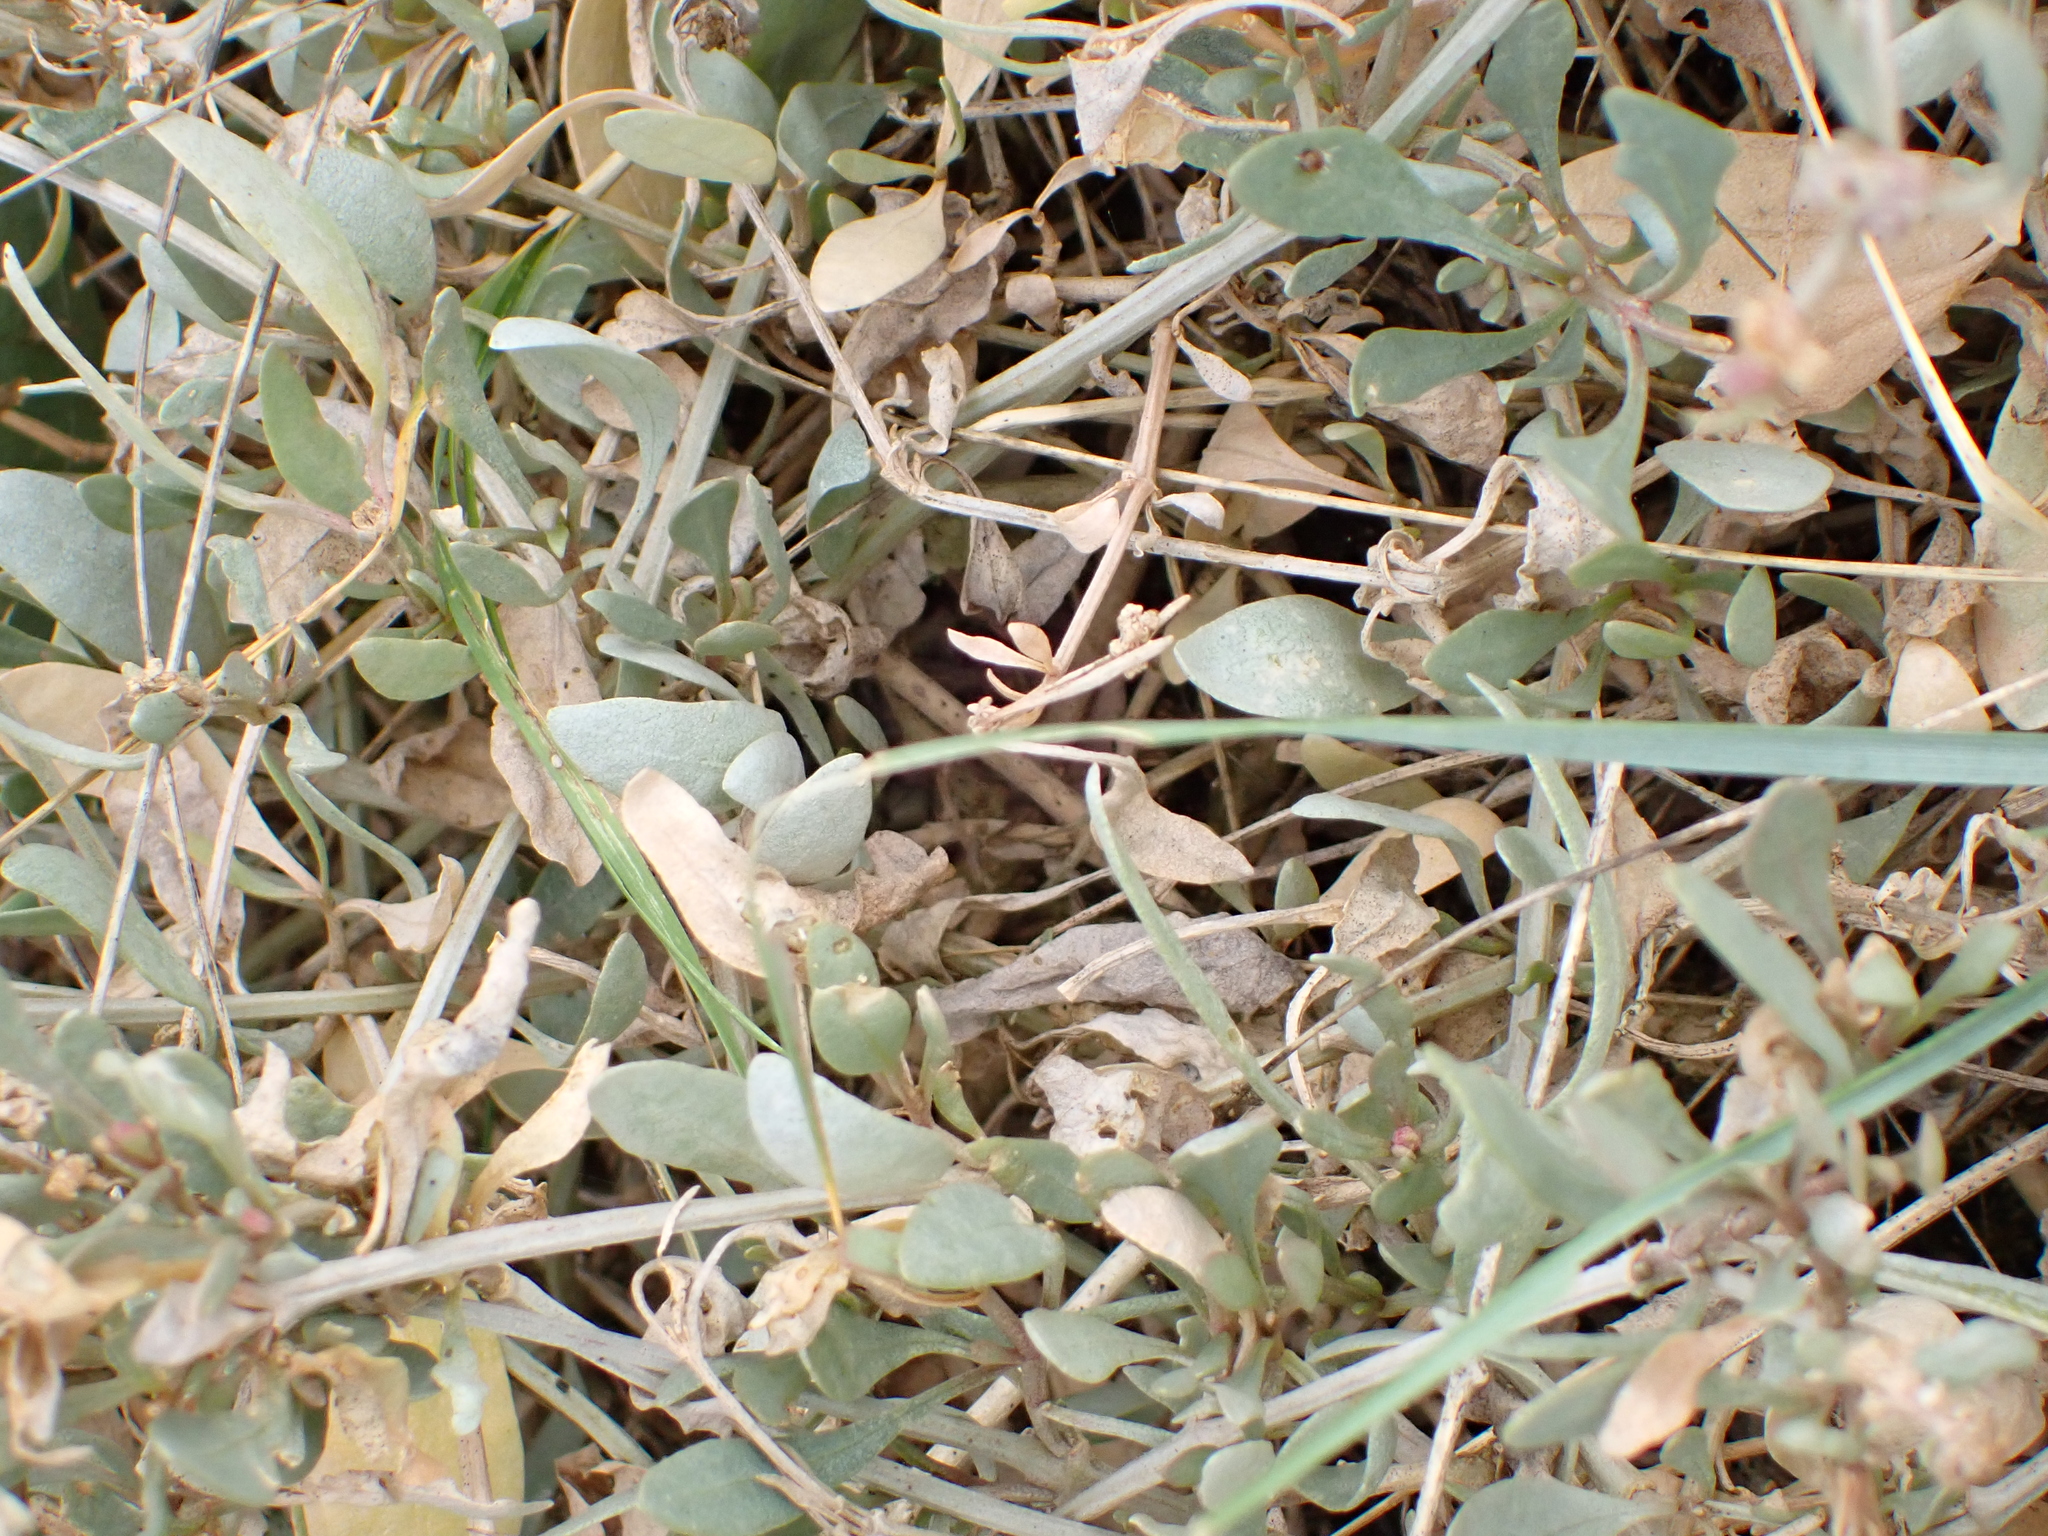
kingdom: Plantae
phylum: Tracheophyta
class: Magnoliopsida
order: Caryophyllales
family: Amaranthaceae
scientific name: Amaranthaceae
